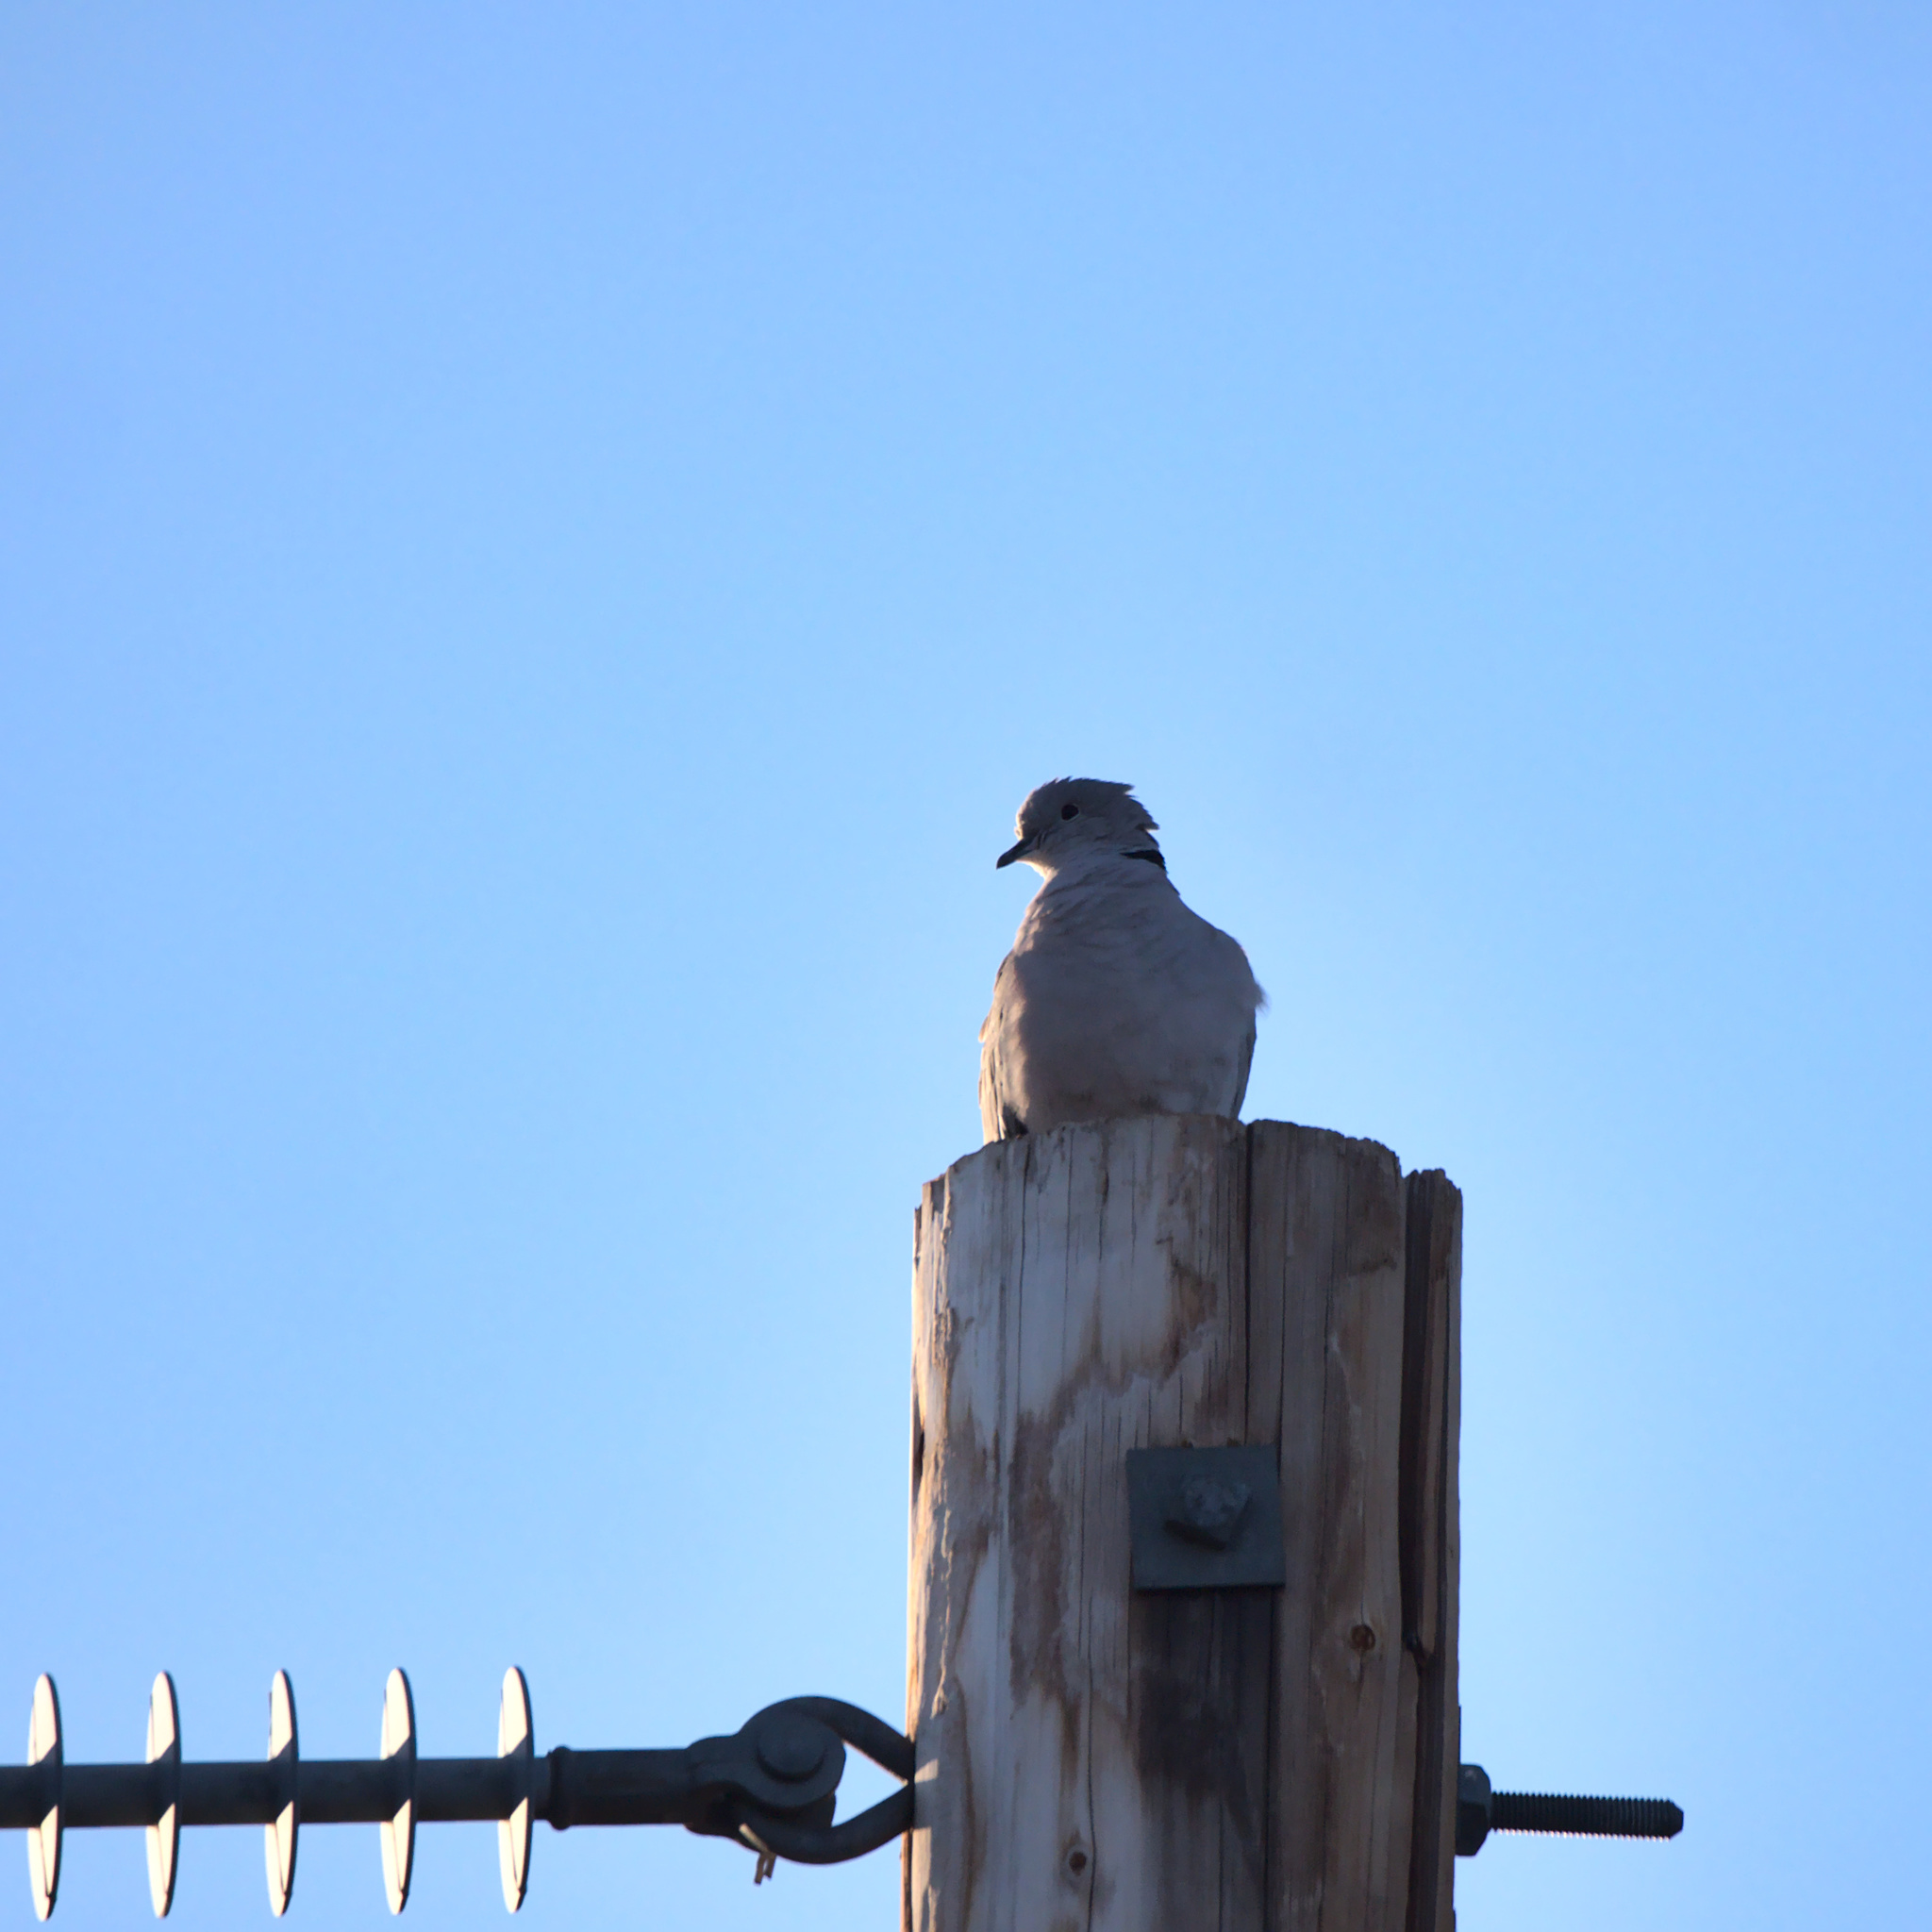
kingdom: Animalia
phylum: Chordata
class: Aves
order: Columbiformes
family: Columbidae
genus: Streptopelia
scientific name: Streptopelia decaocto
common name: Eurasian collared dove
